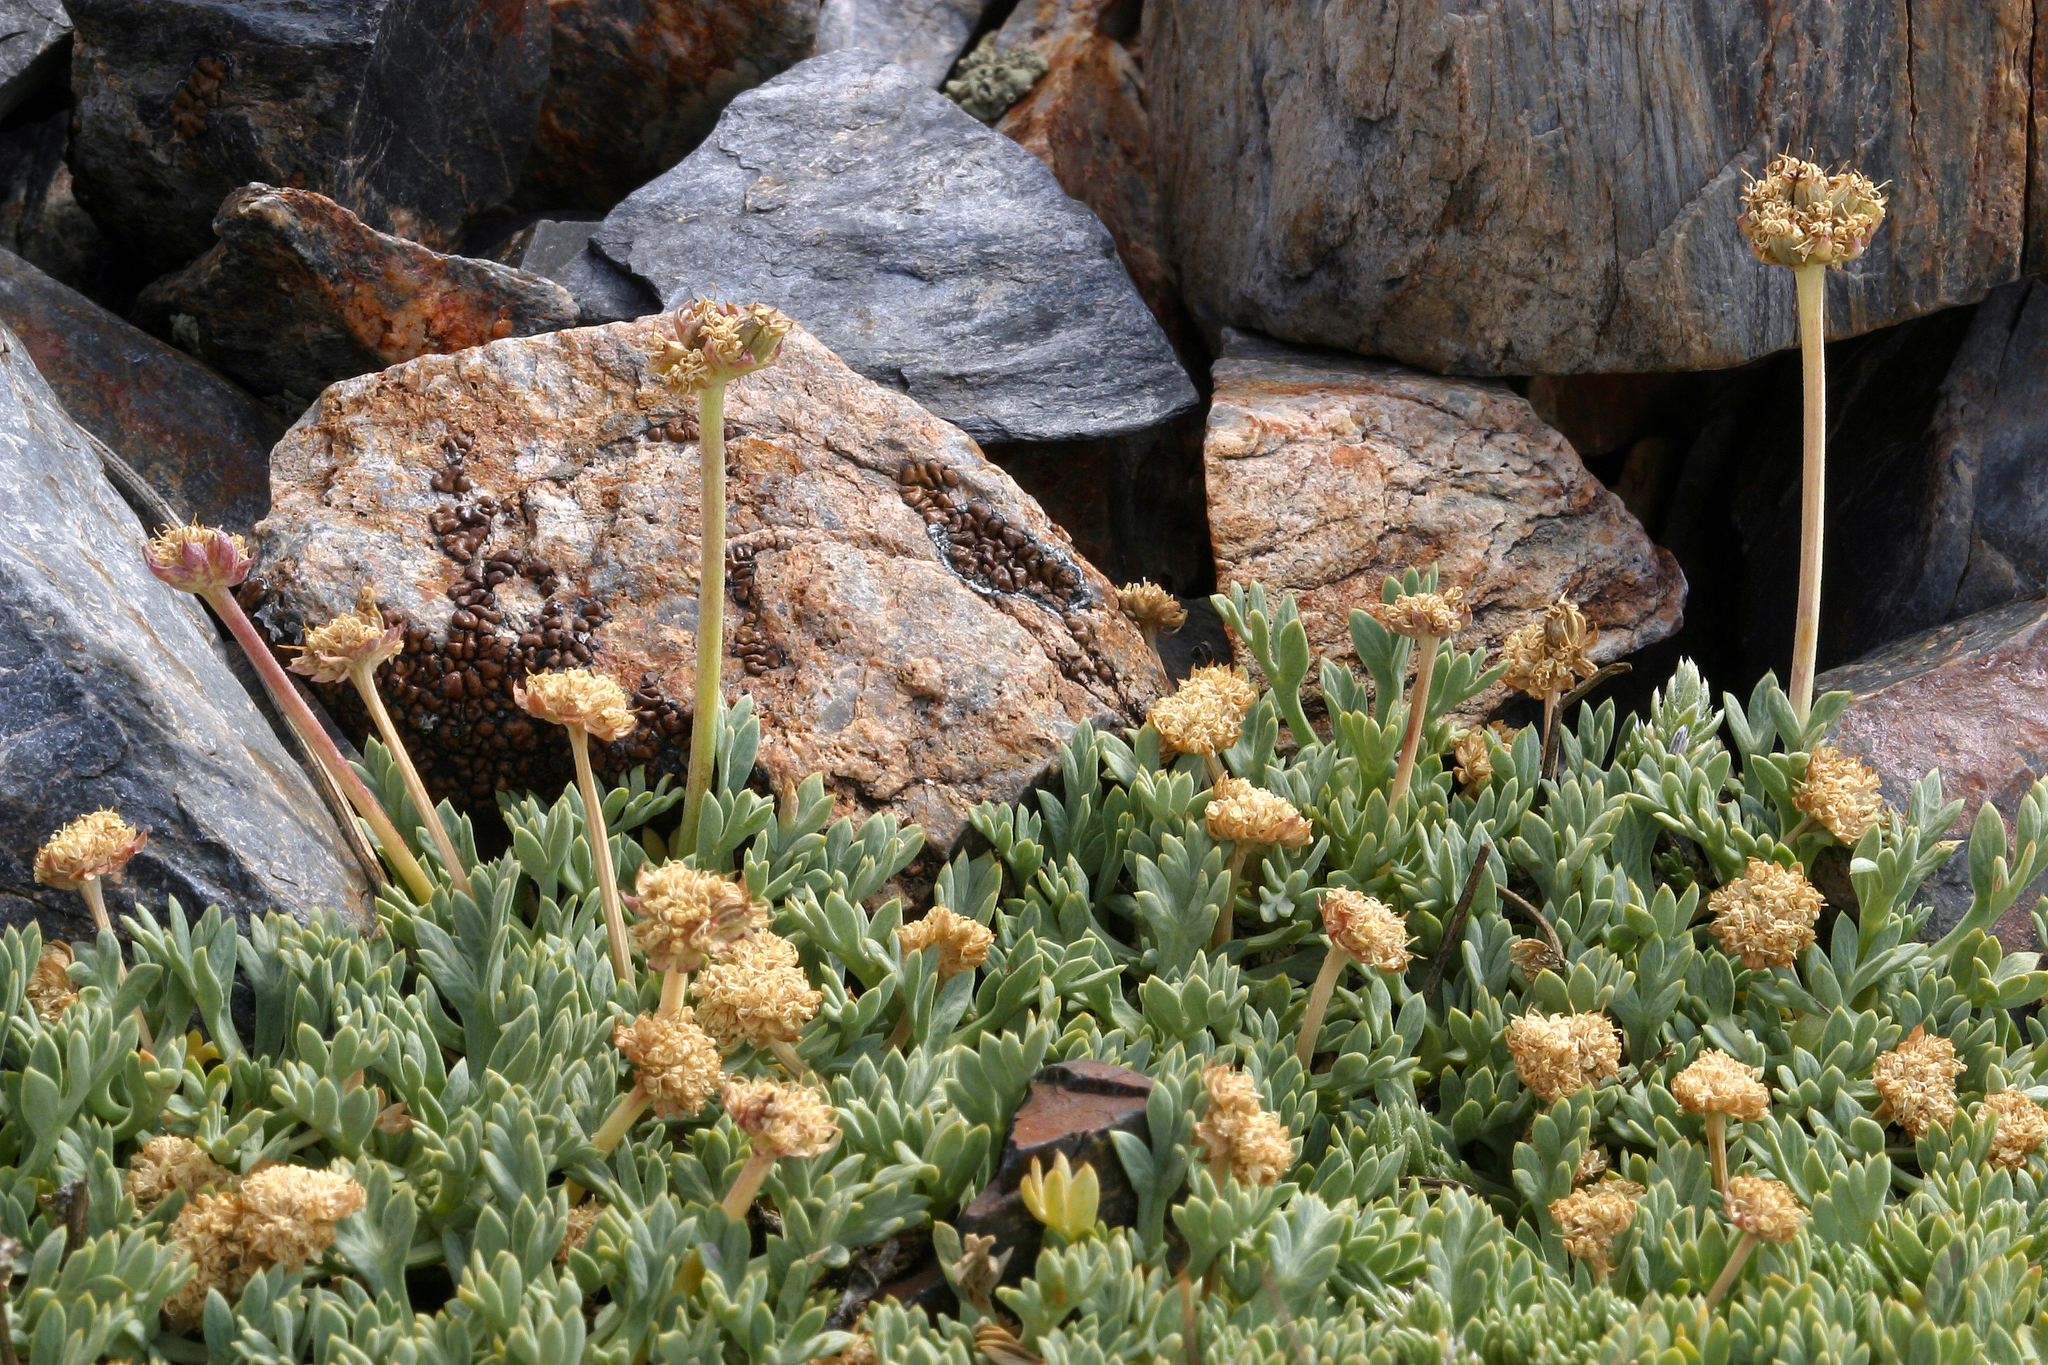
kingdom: Plantae
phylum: Tracheophyta
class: Magnoliopsida
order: Apiales
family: Apiaceae
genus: Podistera
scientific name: Podistera nevadensis
